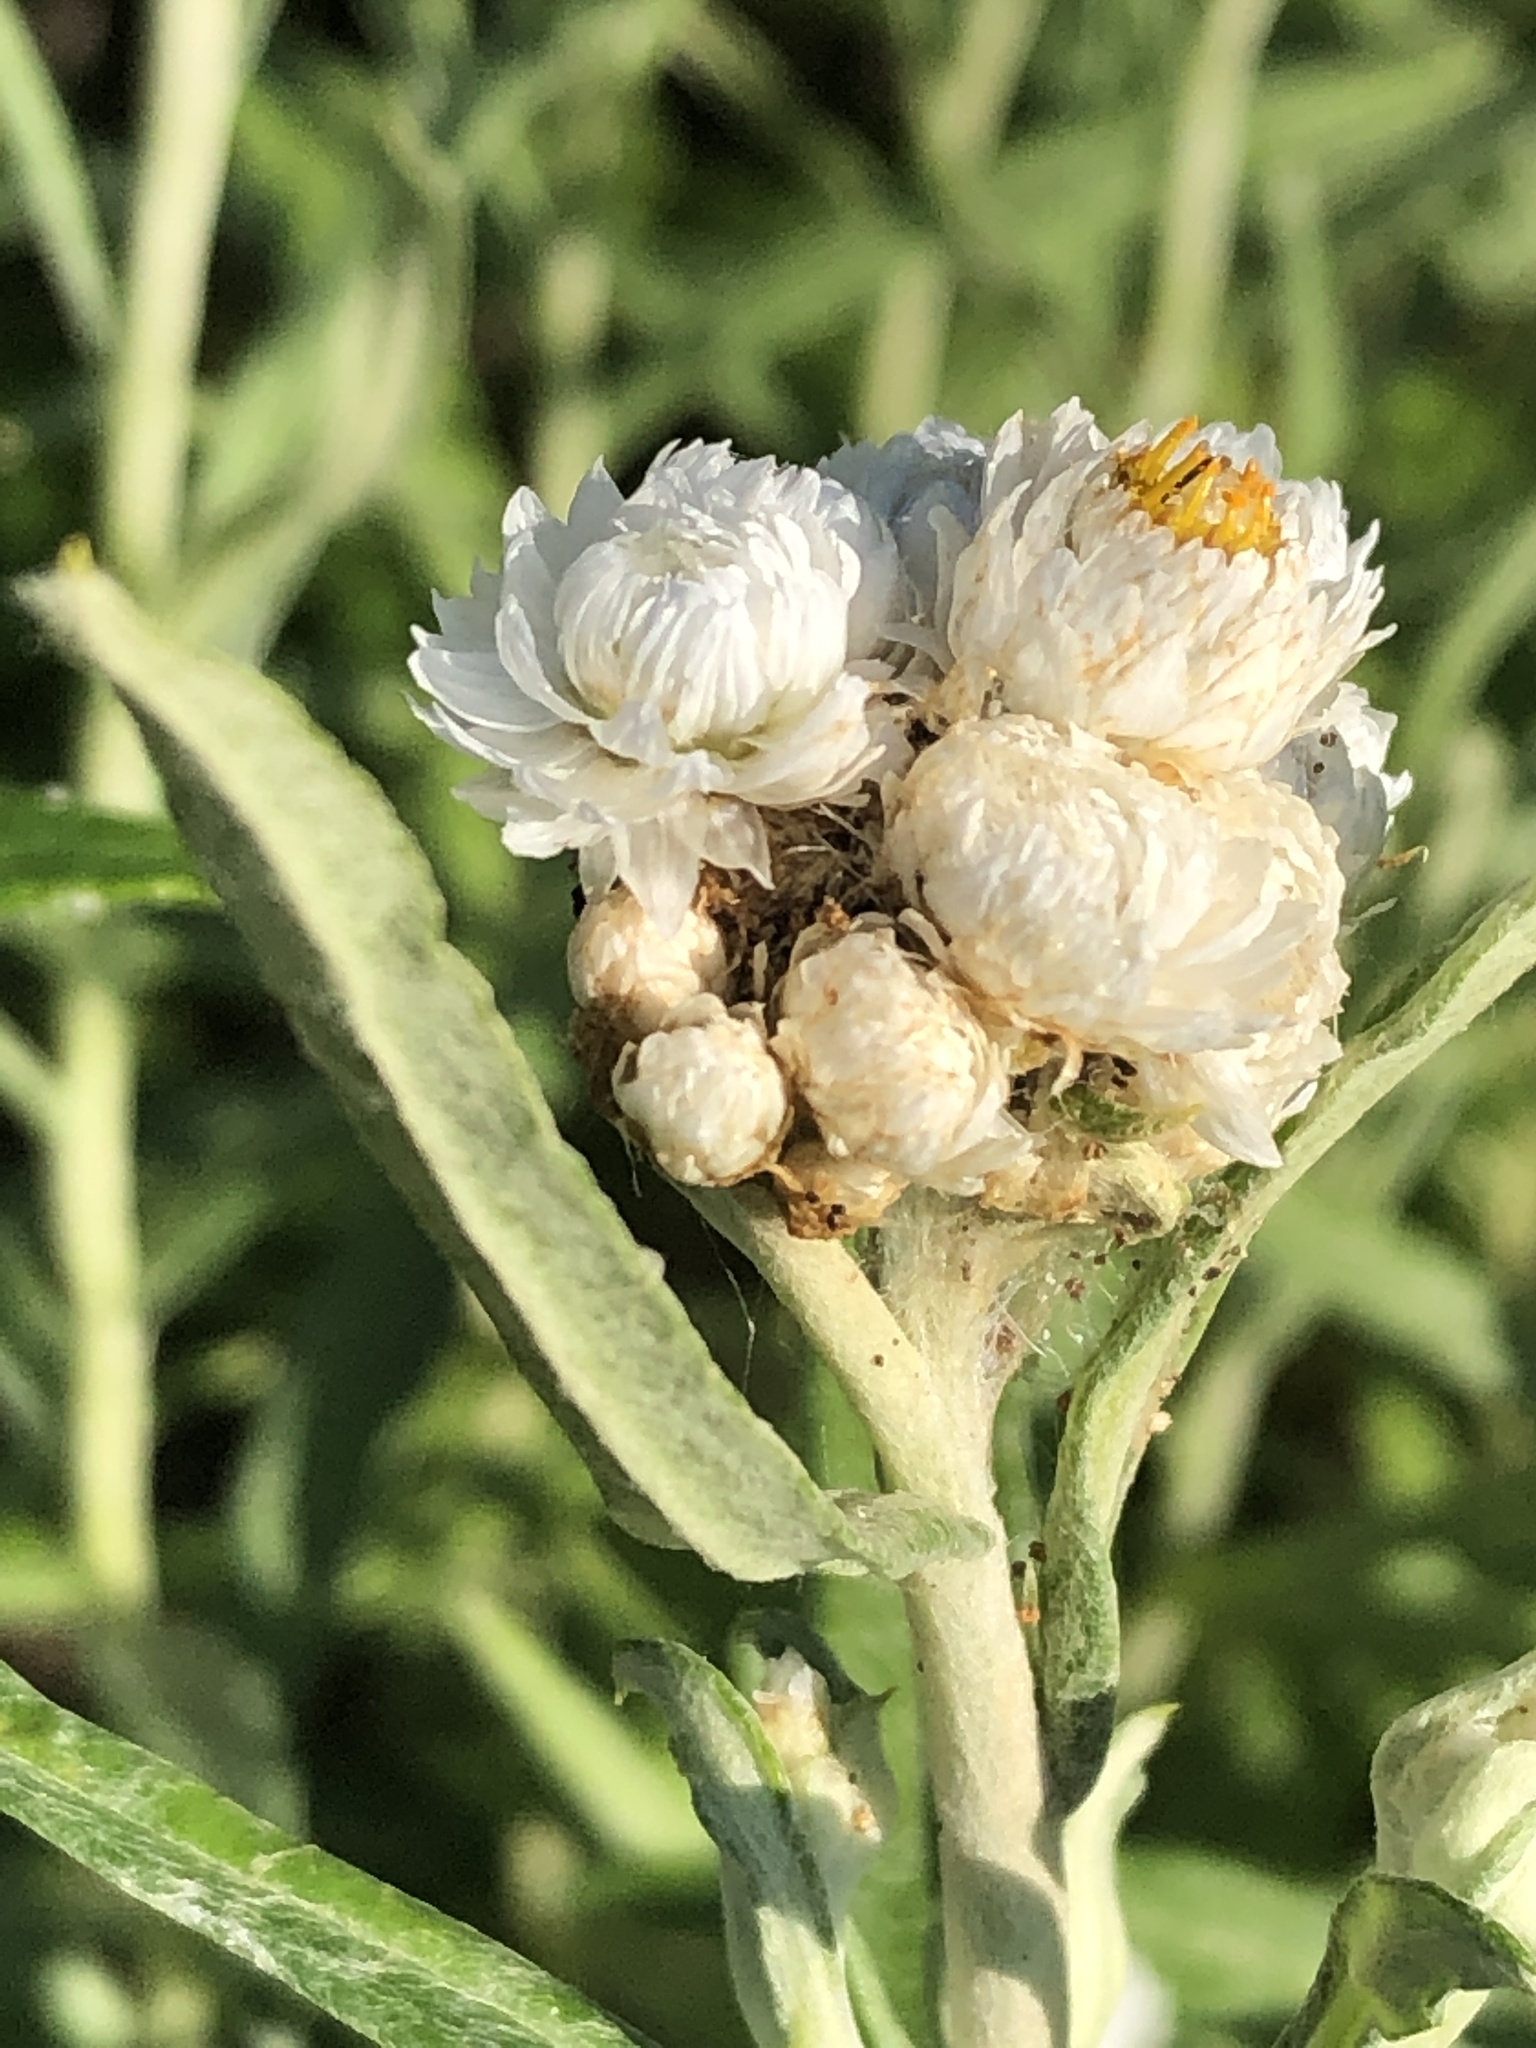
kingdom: Plantae
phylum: Tracheophyta
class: Magnoliopsida
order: Asterales
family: Asteraceae
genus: Anaphalis
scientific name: Anaphalis margaritacea
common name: Pearly everlasting
